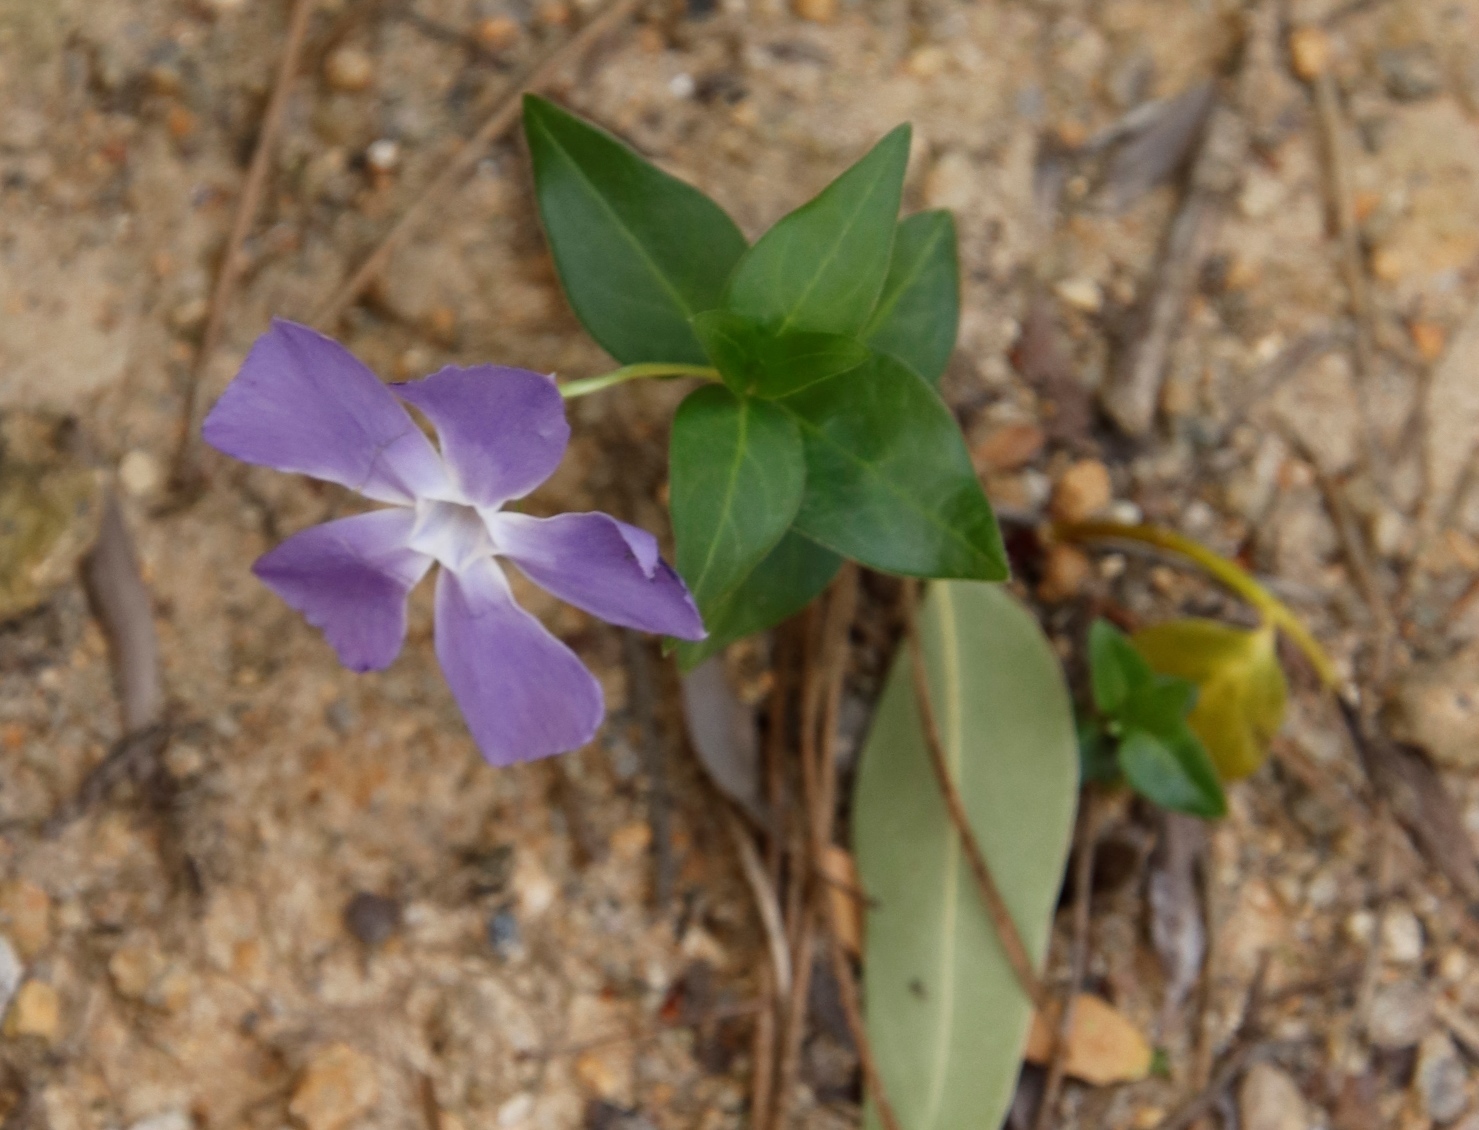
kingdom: Plantae
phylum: Tracheophyta
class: Magnoliopsida
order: Gentianales
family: Apocynaceae
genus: Vinca
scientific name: Vinca major
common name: Greater periwinkle
